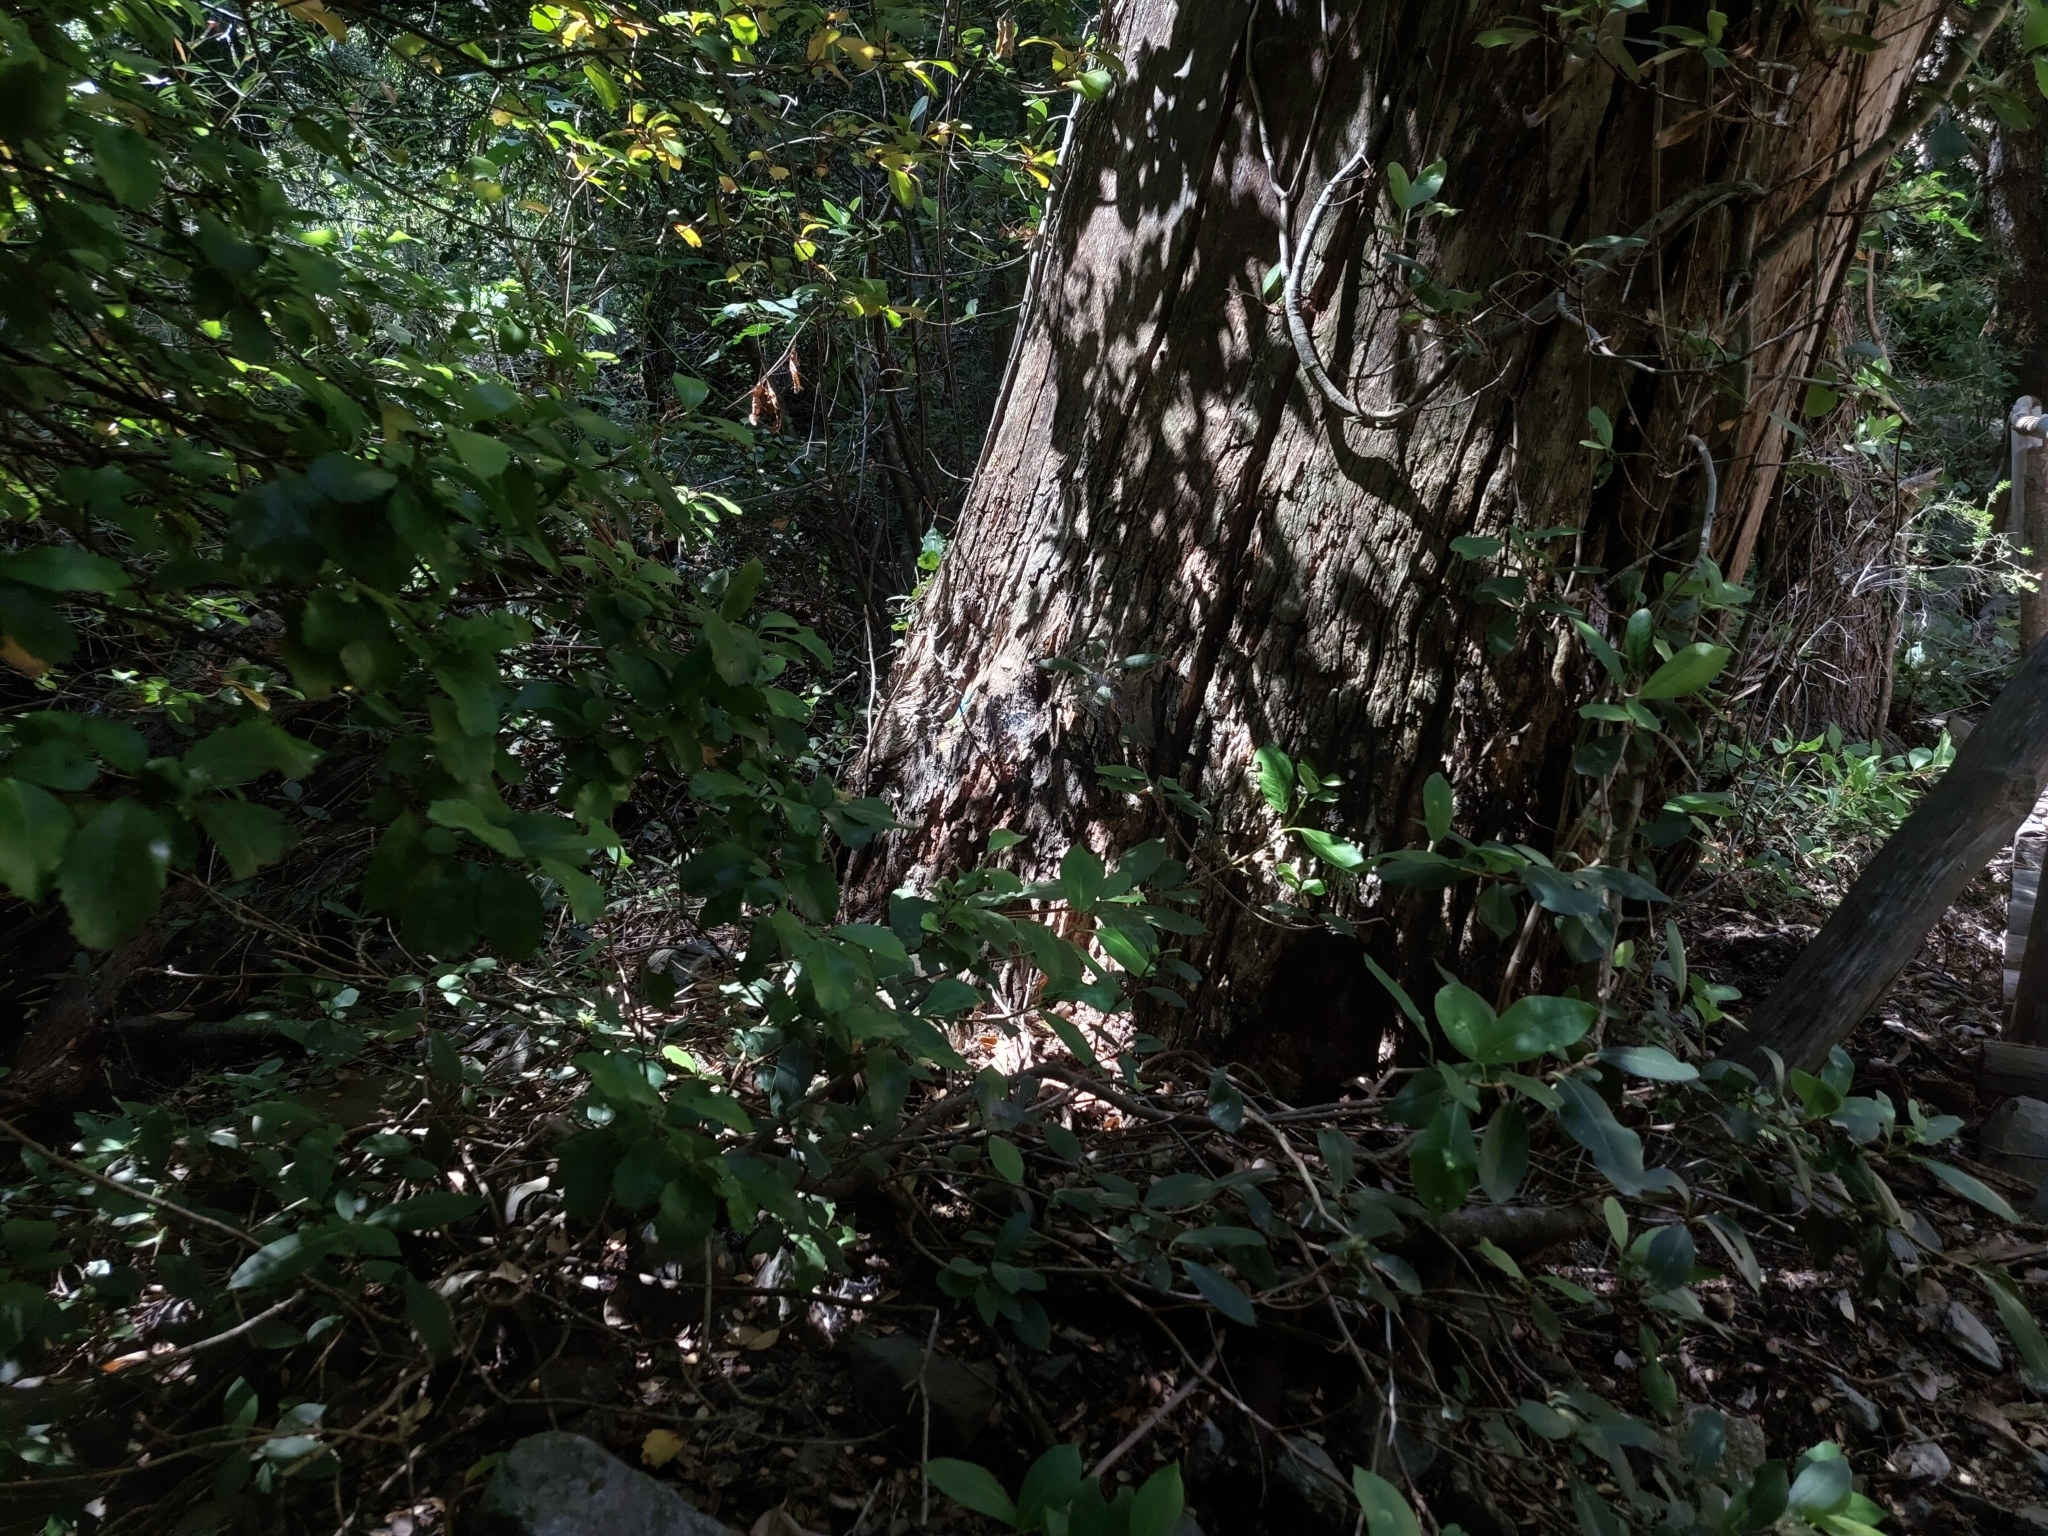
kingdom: Animalia
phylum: Chordata
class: Squamata
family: Liolaemidae
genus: Liolaemus
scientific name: Liolaemus tenuis
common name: Thin tree iguana
